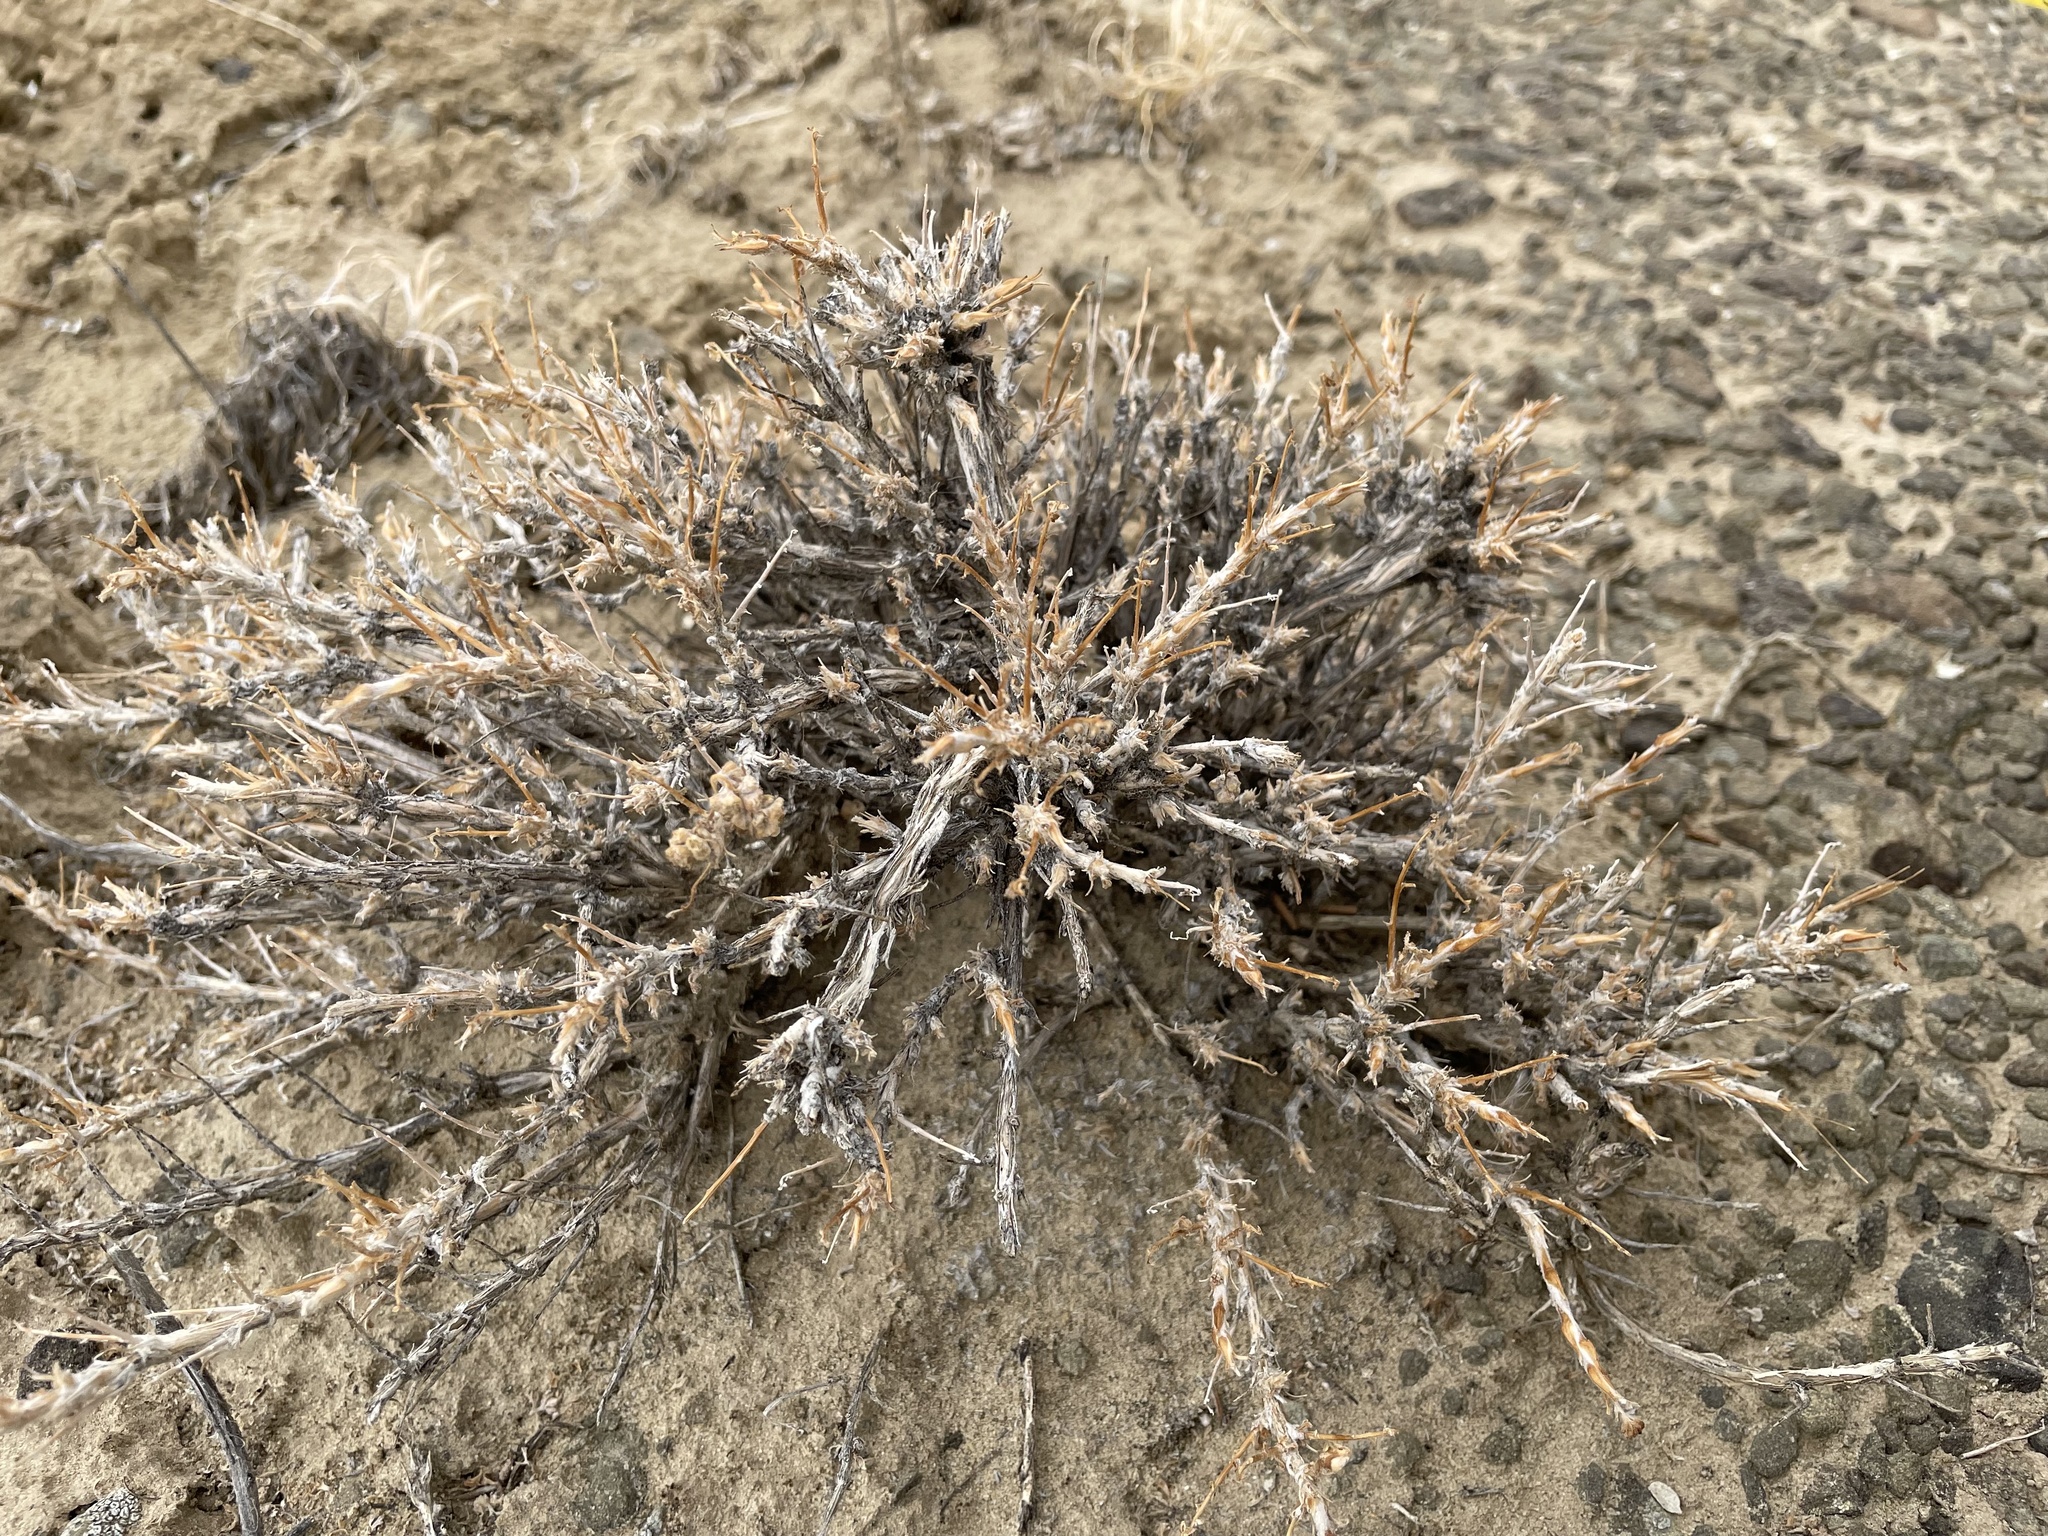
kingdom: Plantae
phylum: Tracheophyta
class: Magnoliopsida
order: Asterales
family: Asteraceae
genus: Artemisia
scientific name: Artemisia spinescens
